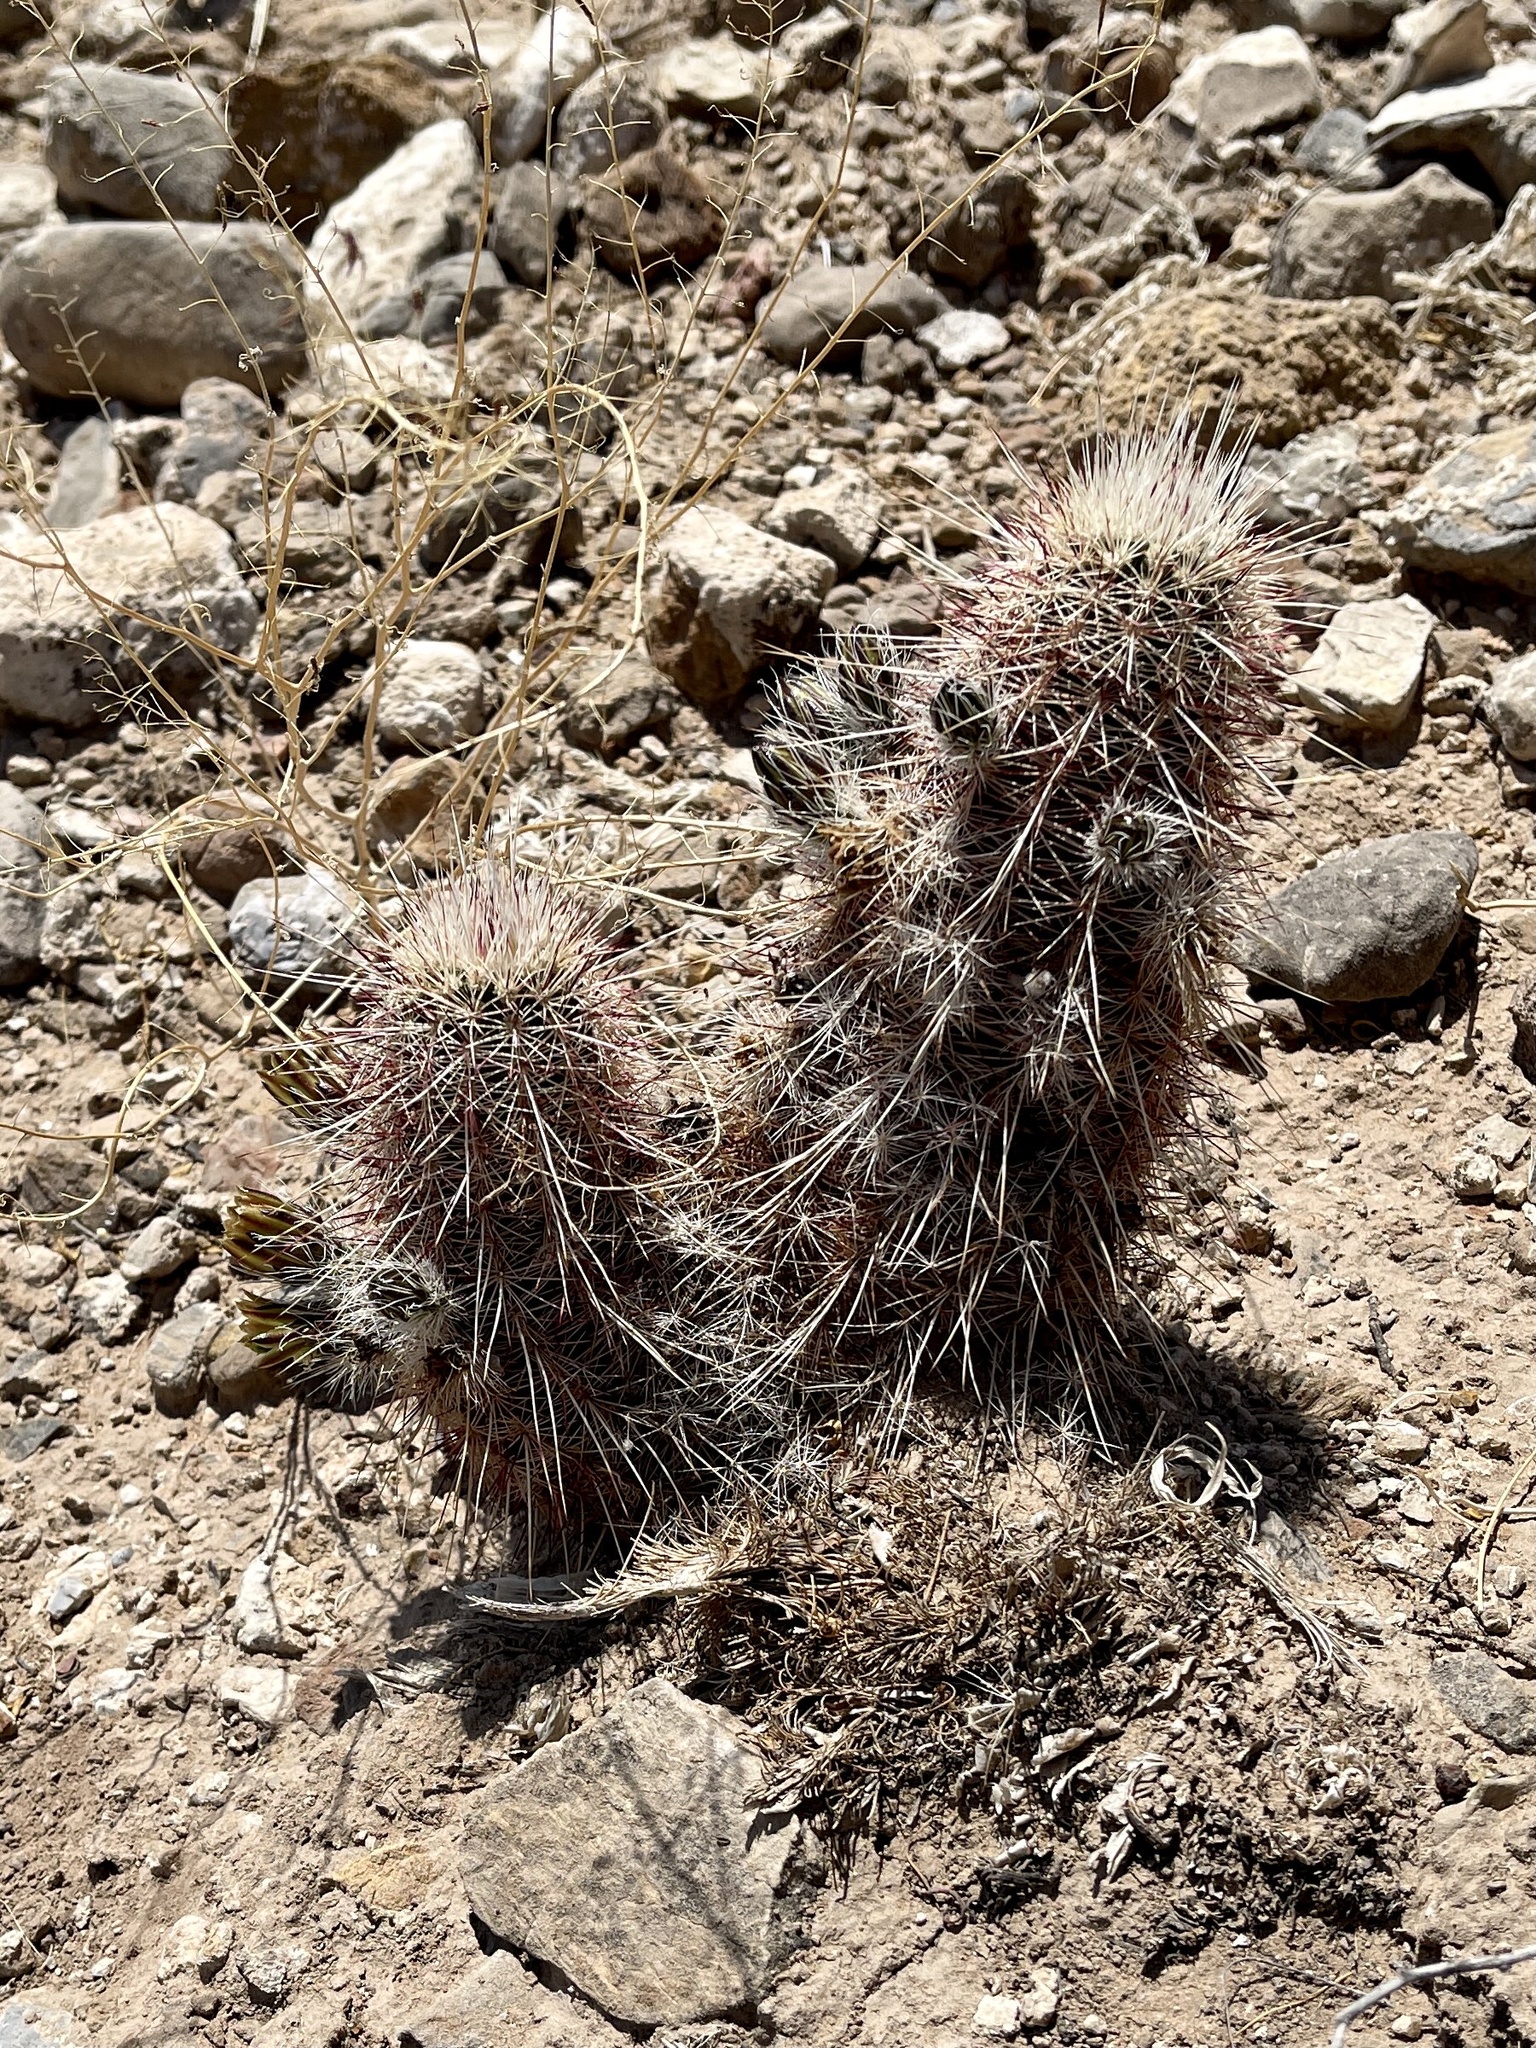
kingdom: Plantae
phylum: Tracheophyta
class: Magnoliopsida
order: Caryophyllales
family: Cactaceae
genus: Echinocereus
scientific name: Echinocereus viridiflorus
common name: Nylon hedgehog cactus
